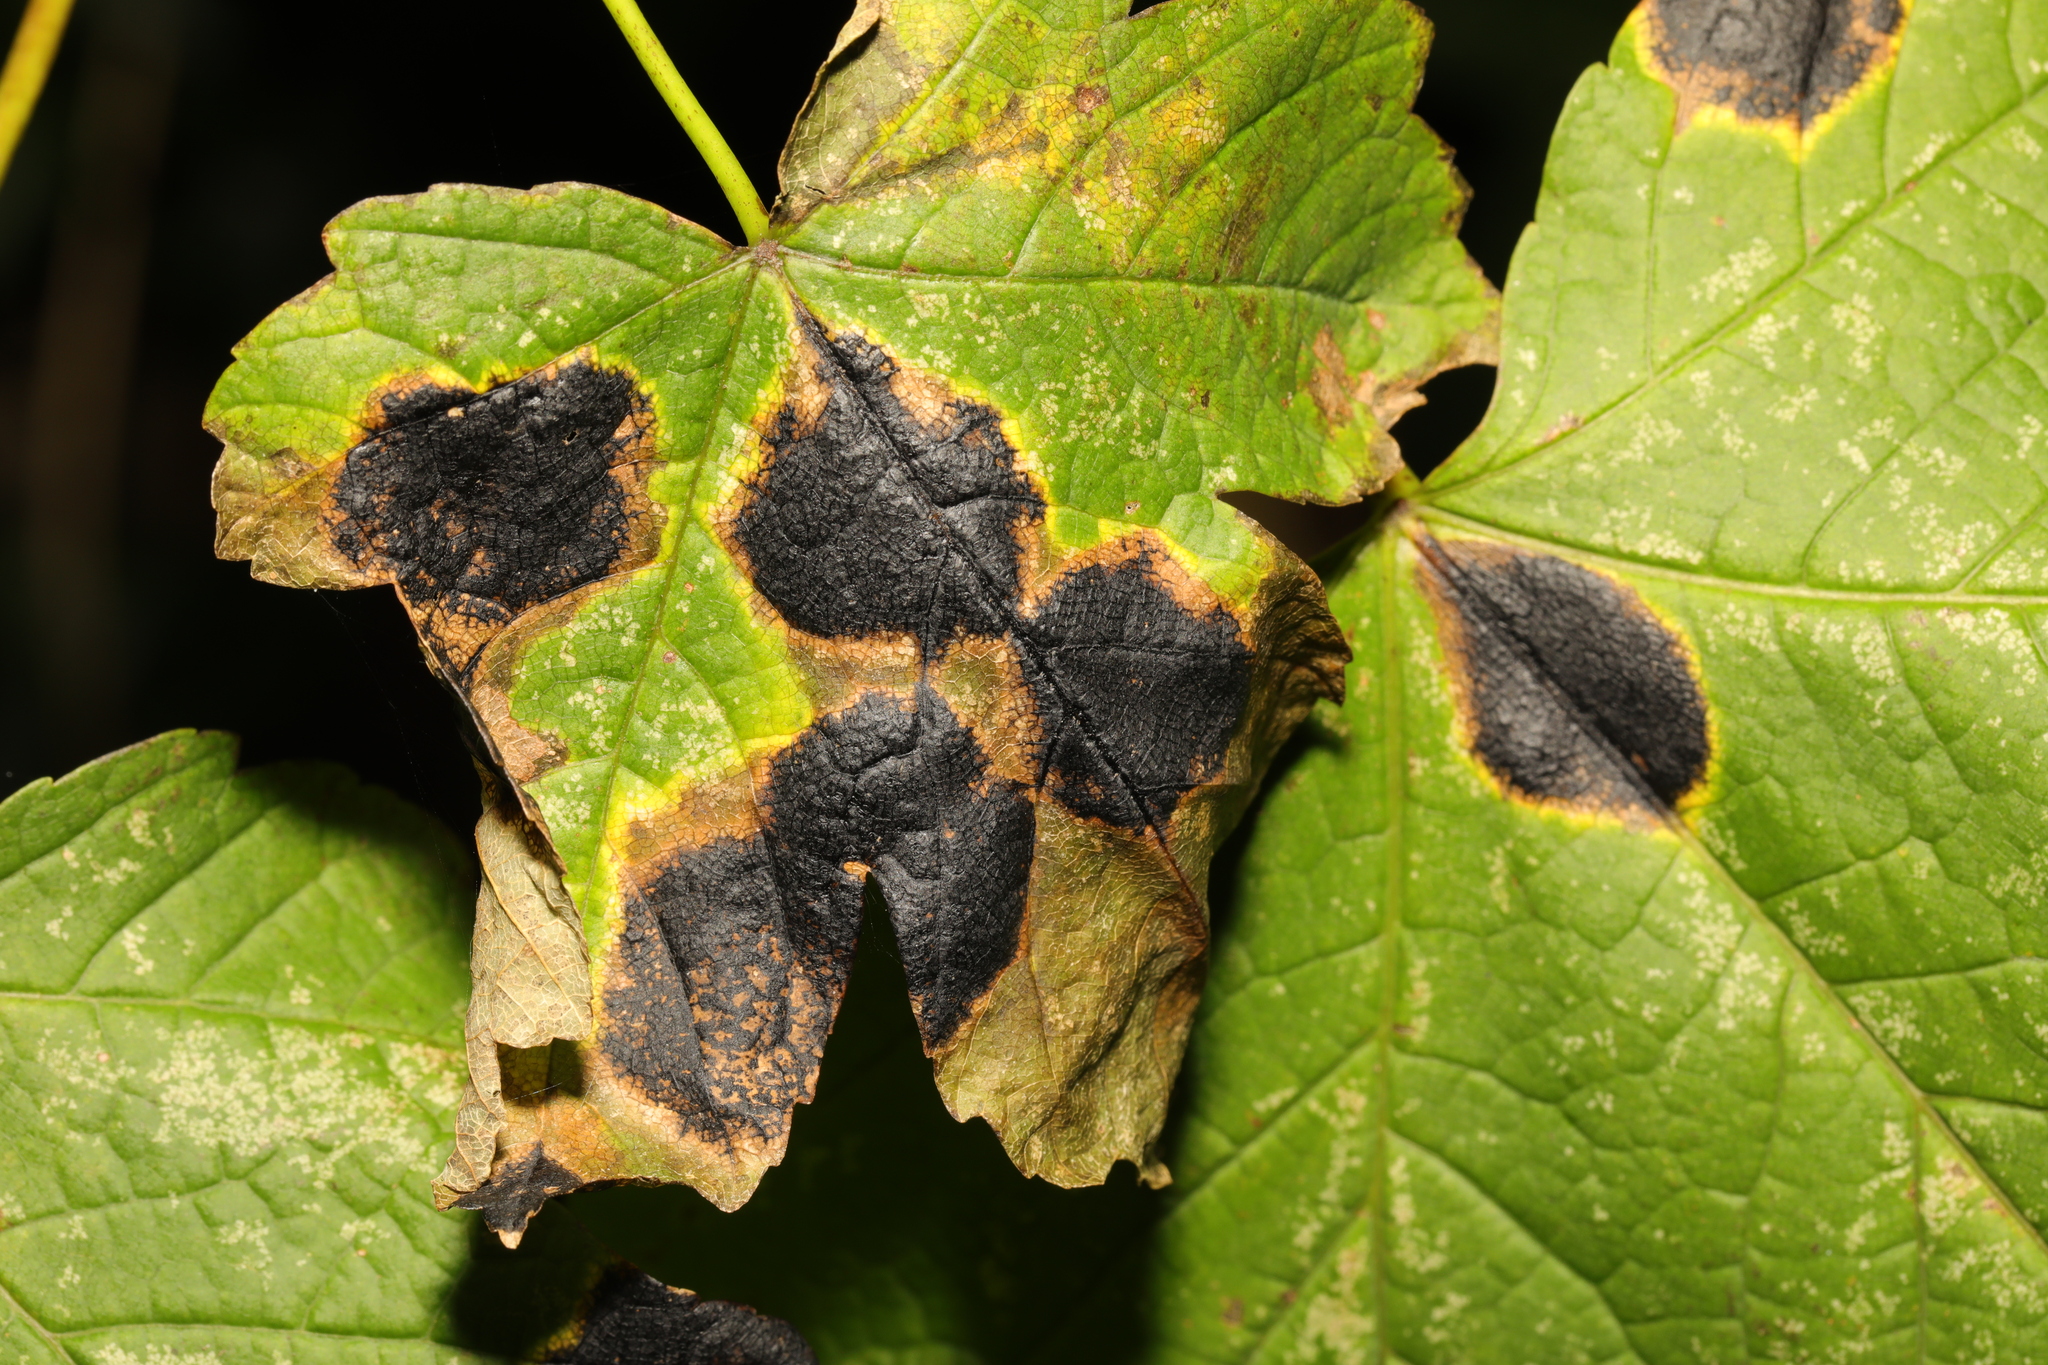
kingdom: Fungi
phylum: Ascomycota
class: Leotiomycetes
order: Rhytismatales
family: Rhytismataceae
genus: Rhytisma
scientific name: Rhytisma acerinum
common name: European tar spot
